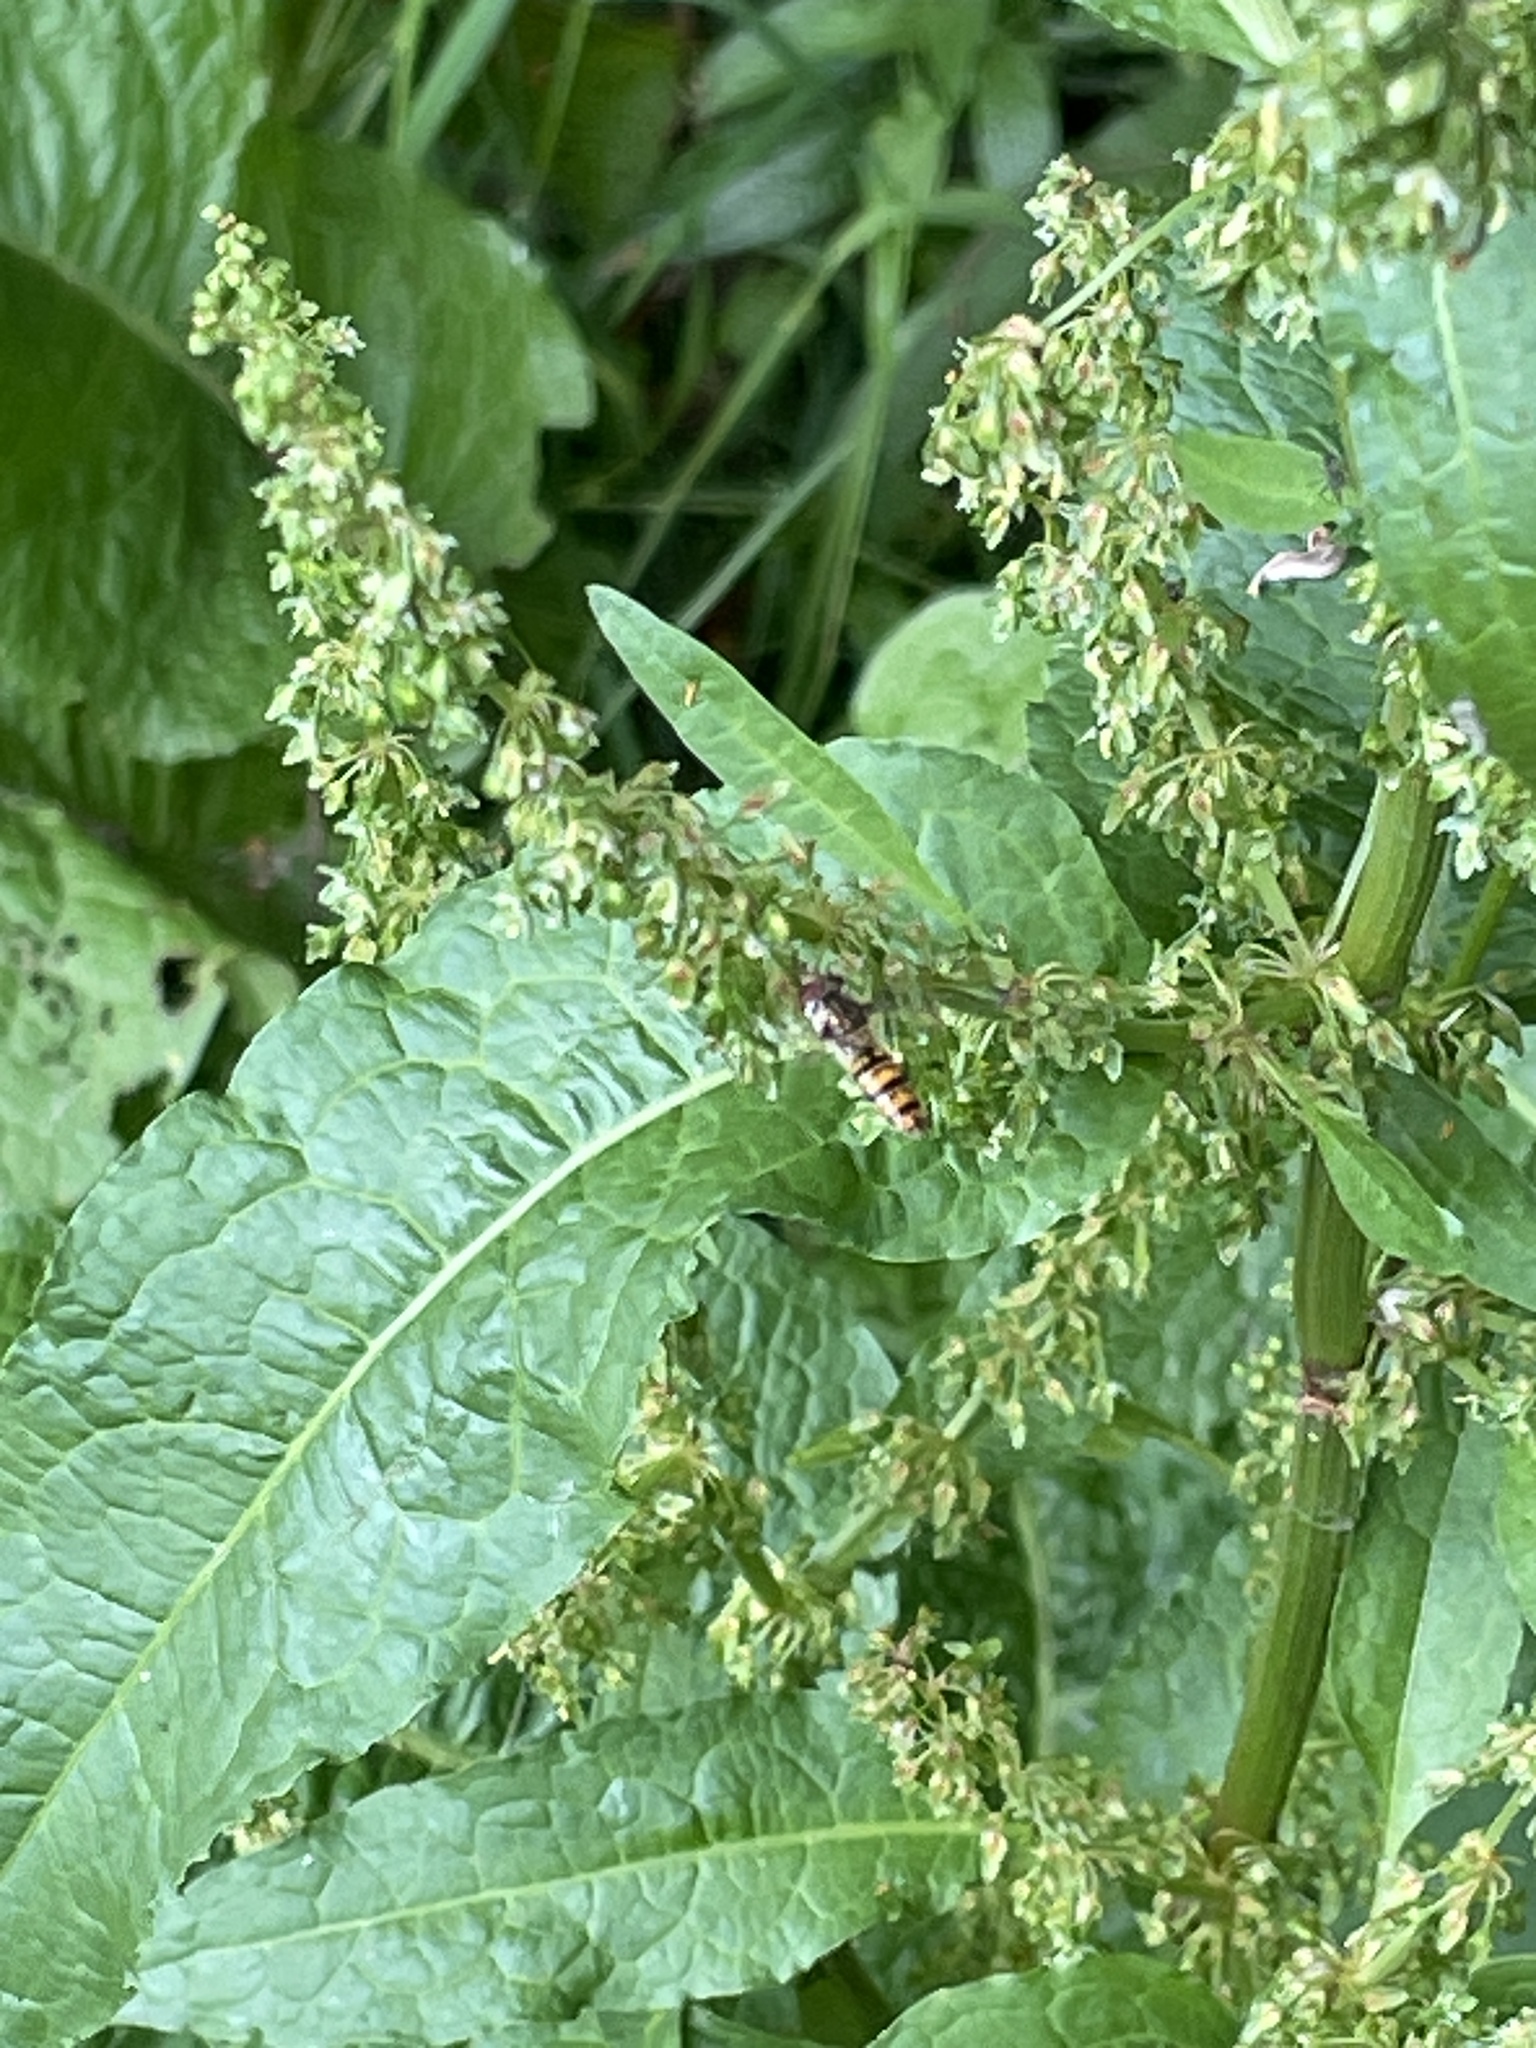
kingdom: Animalia
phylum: Arthropoda
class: Insecta
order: Diptera
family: Syrphidae
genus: Episyrphus
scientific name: Episyrphus balteatus
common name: Marmalade hoverfly
